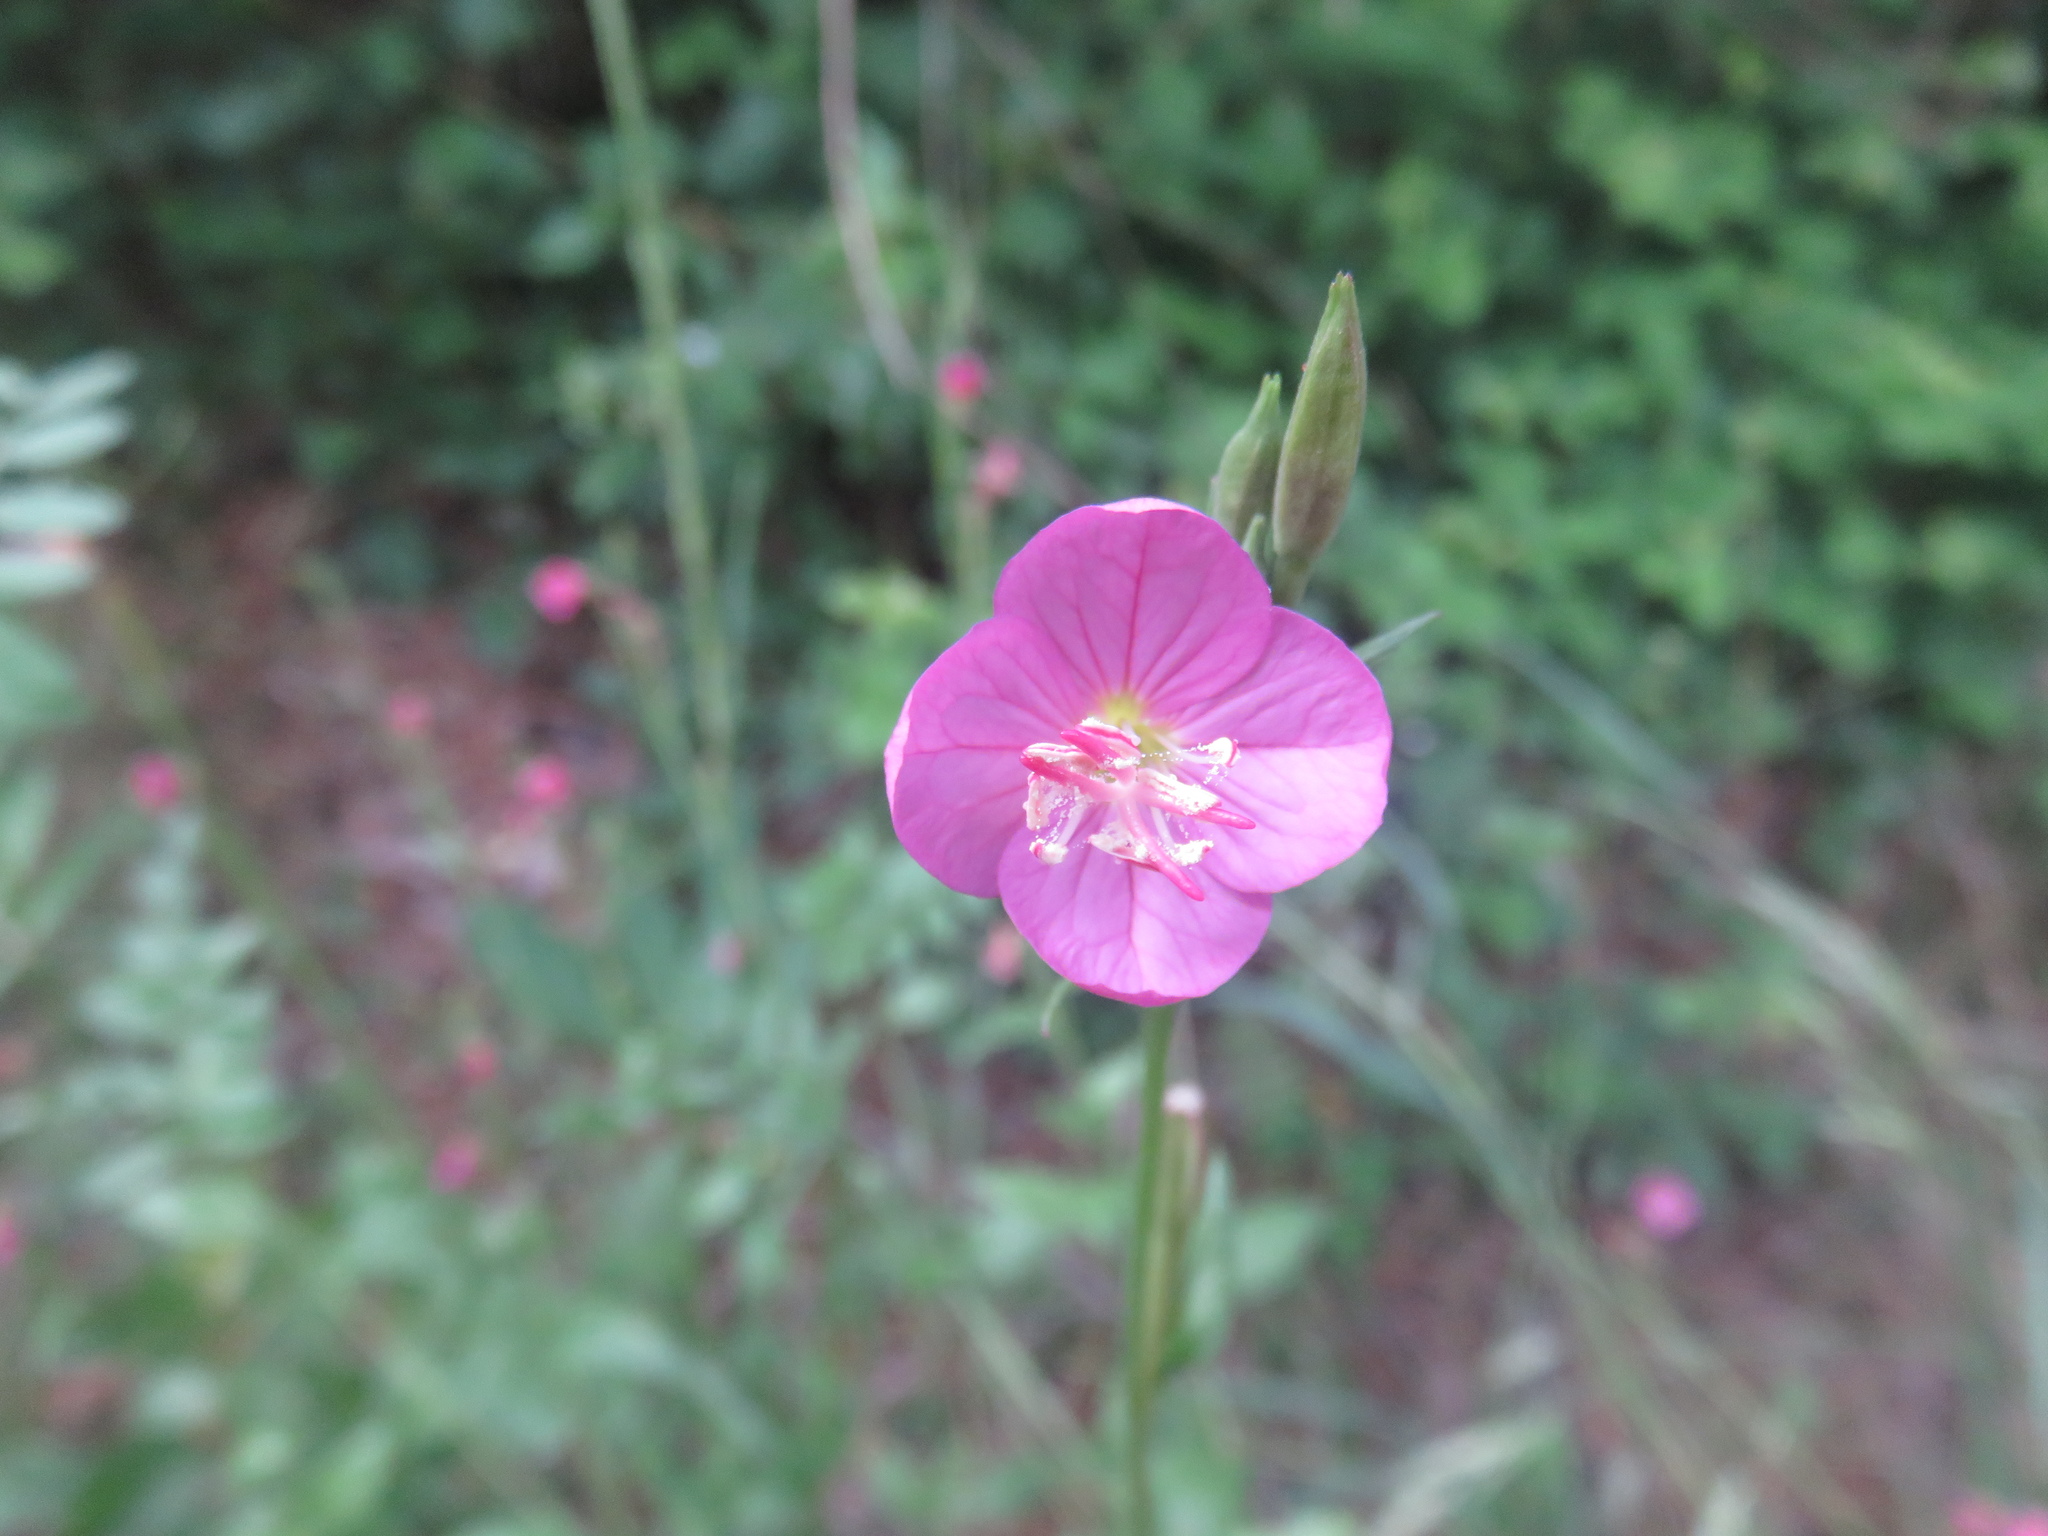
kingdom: Plantae
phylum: Tracheophyta
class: Magnoliopsida
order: Myrtales
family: Onagraceae
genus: Oenothera
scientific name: Oenothera rosea
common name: Rosy evening-primrose
